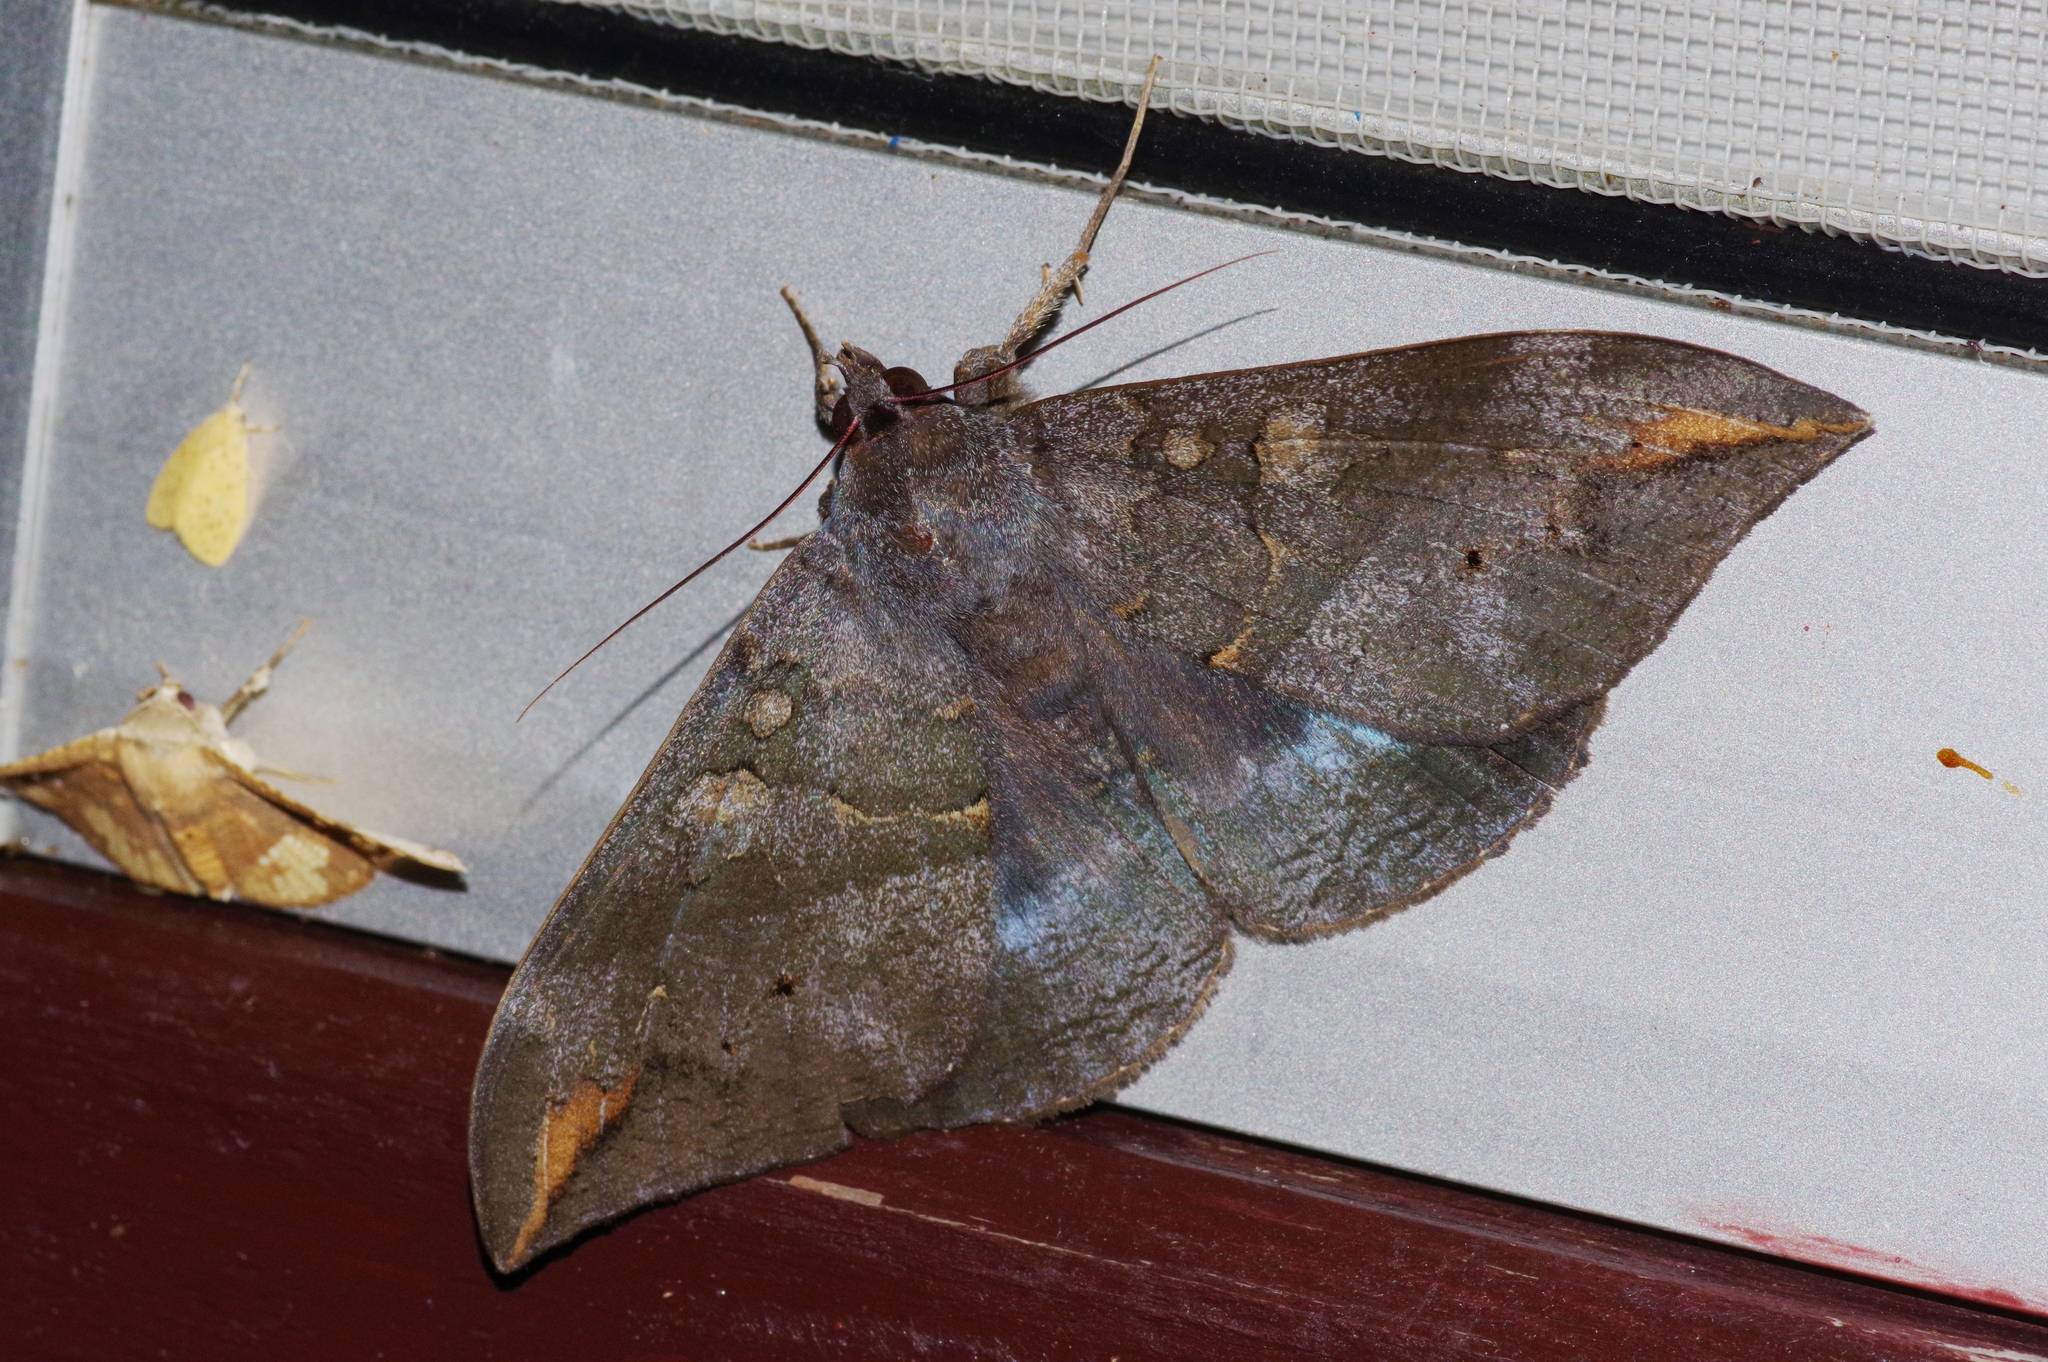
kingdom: Animalia
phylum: Arthropoda
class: Insecta
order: Lepidoptera
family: Erebidae
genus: Ischyja
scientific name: Ischyja ferrifracta
